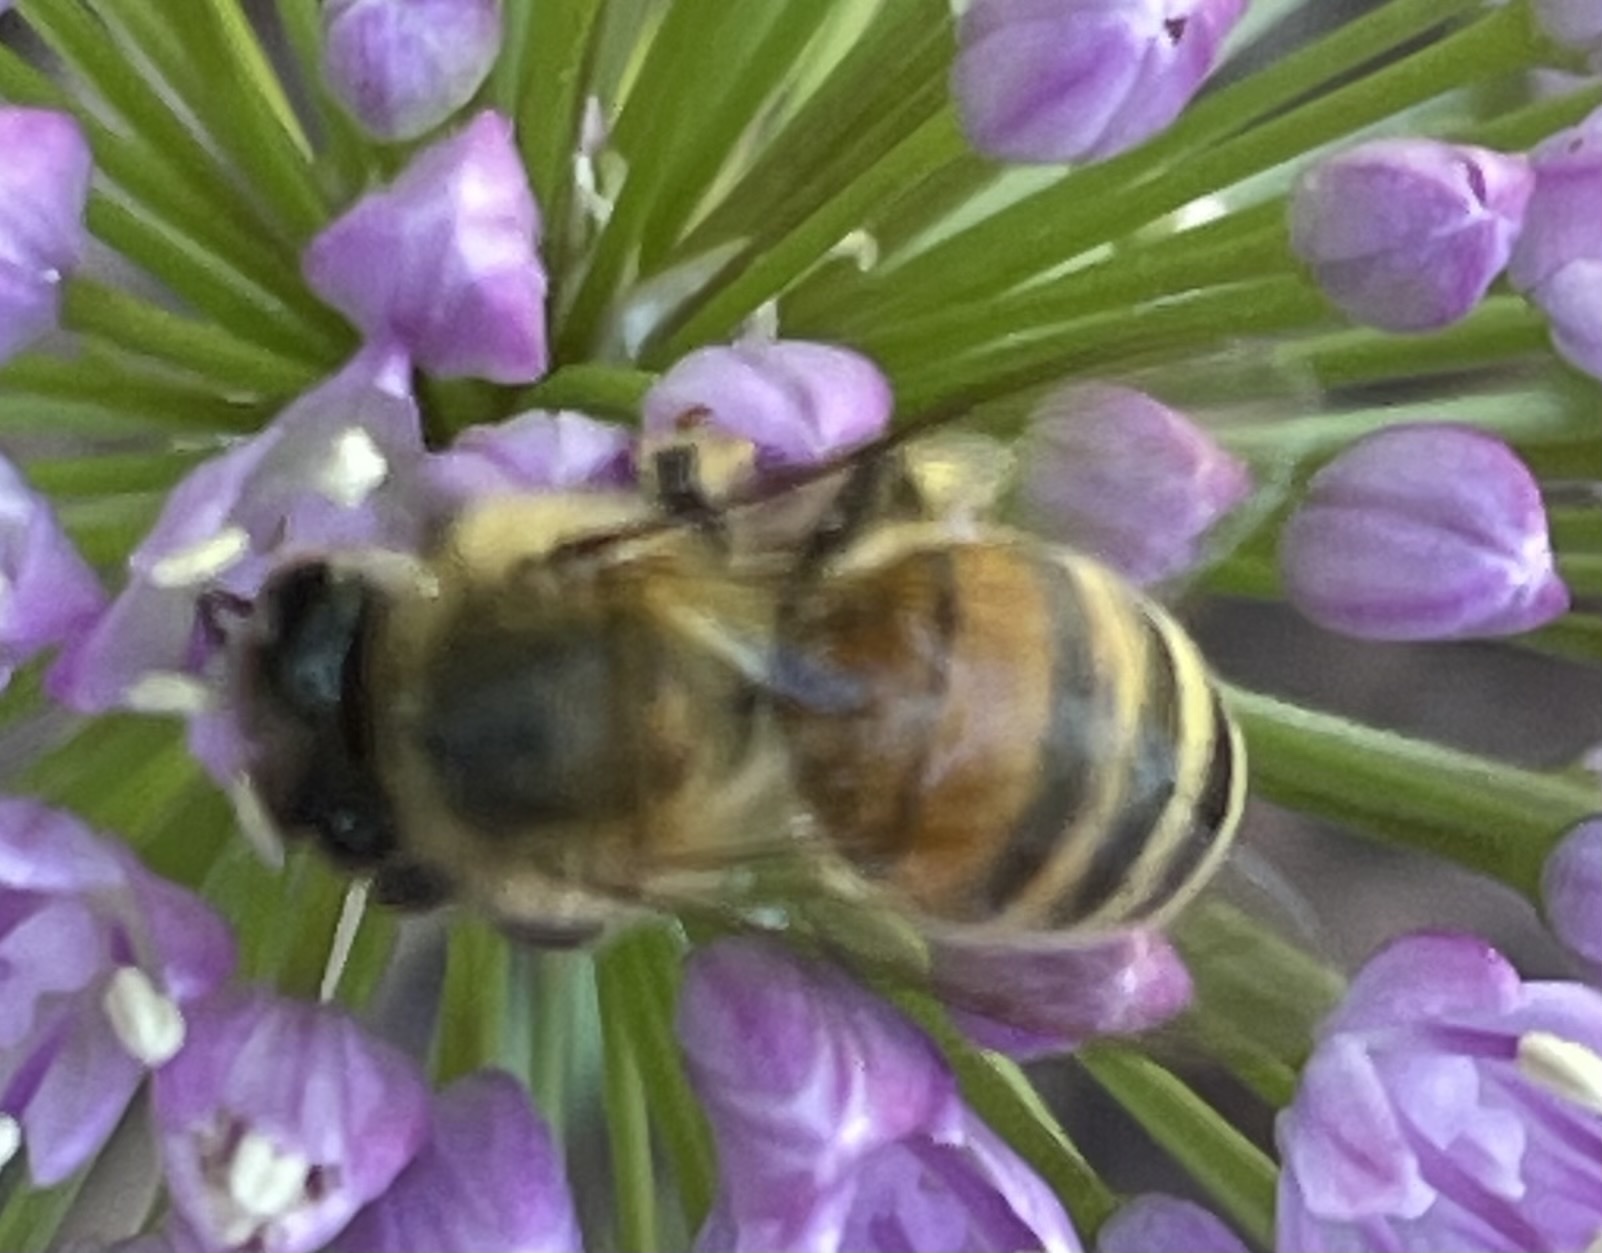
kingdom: Animalia
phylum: Arthropoda
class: Insecta
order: Hymenoptera
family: Apidae
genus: Apis
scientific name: Apis mellifera
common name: Honey bee
